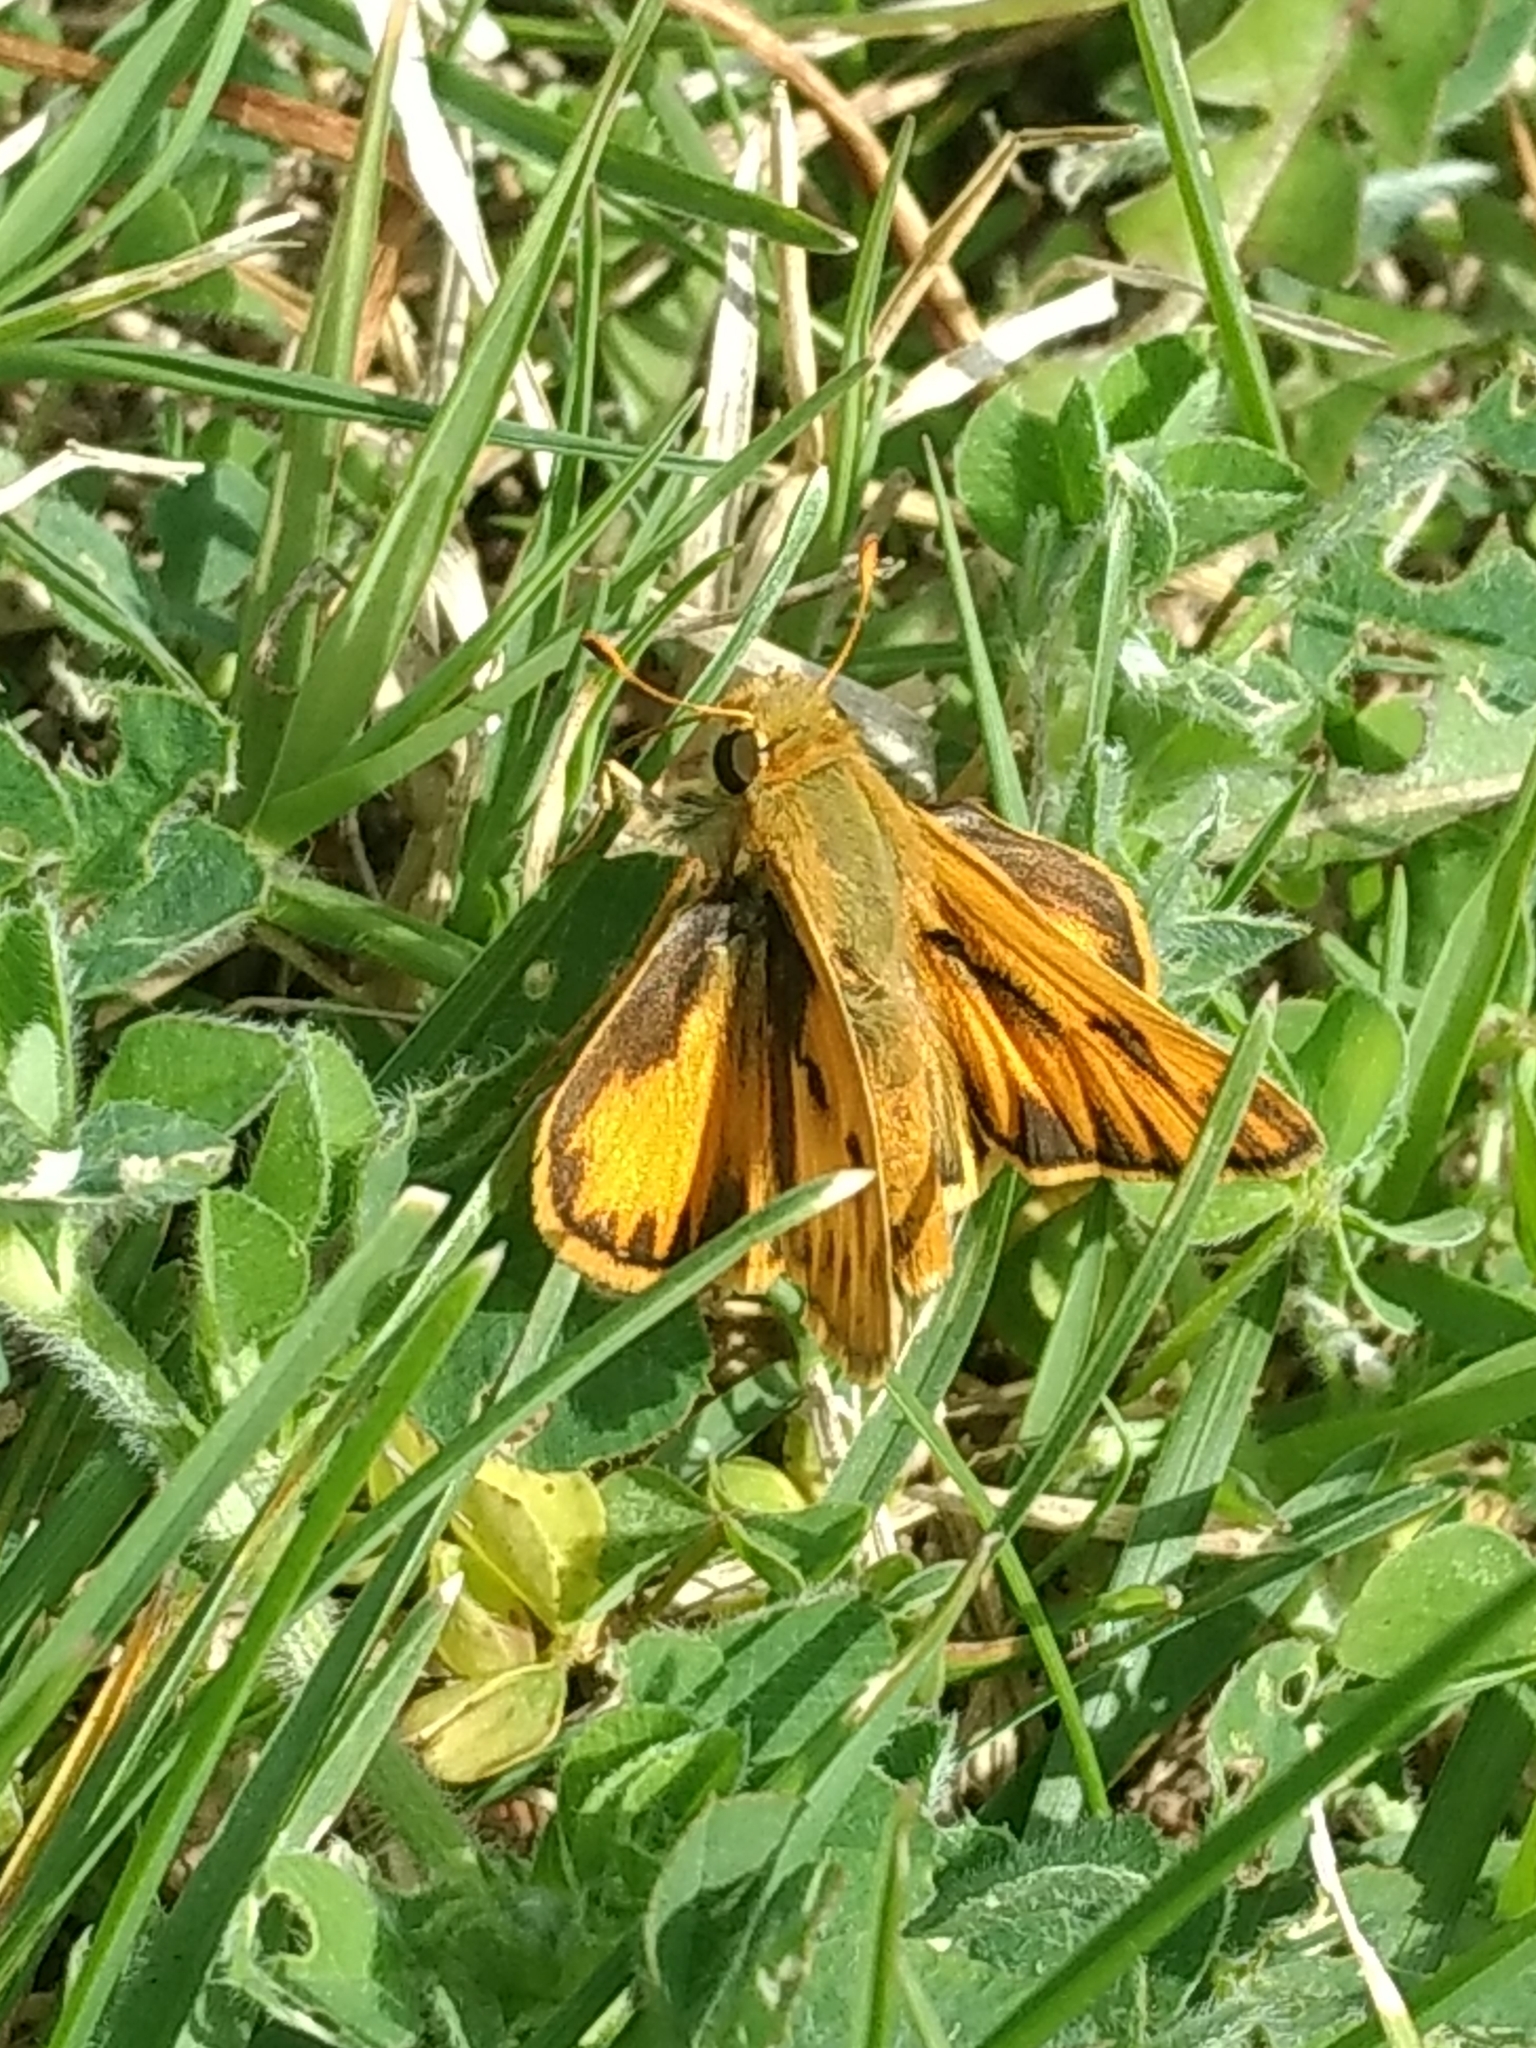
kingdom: Animalia
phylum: Arthropoda
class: Insecta
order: Lepidoptera
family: Hesperiidae
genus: Hylephila
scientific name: Hylephila phyleus
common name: Fiery skipper
